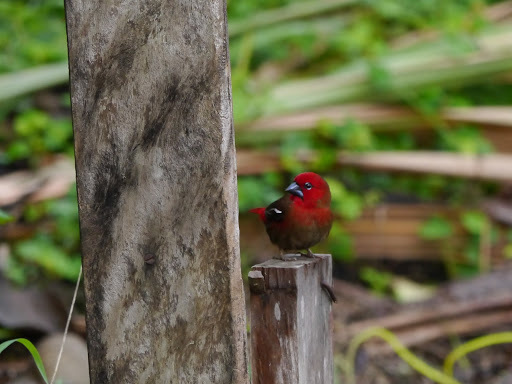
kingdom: Animalia
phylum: Chordata
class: Aves
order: Passeriformes
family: Estrildidae
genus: Pyrenestes
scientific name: Pyrenestes ostrinus
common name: Black-bellied seedcracker
